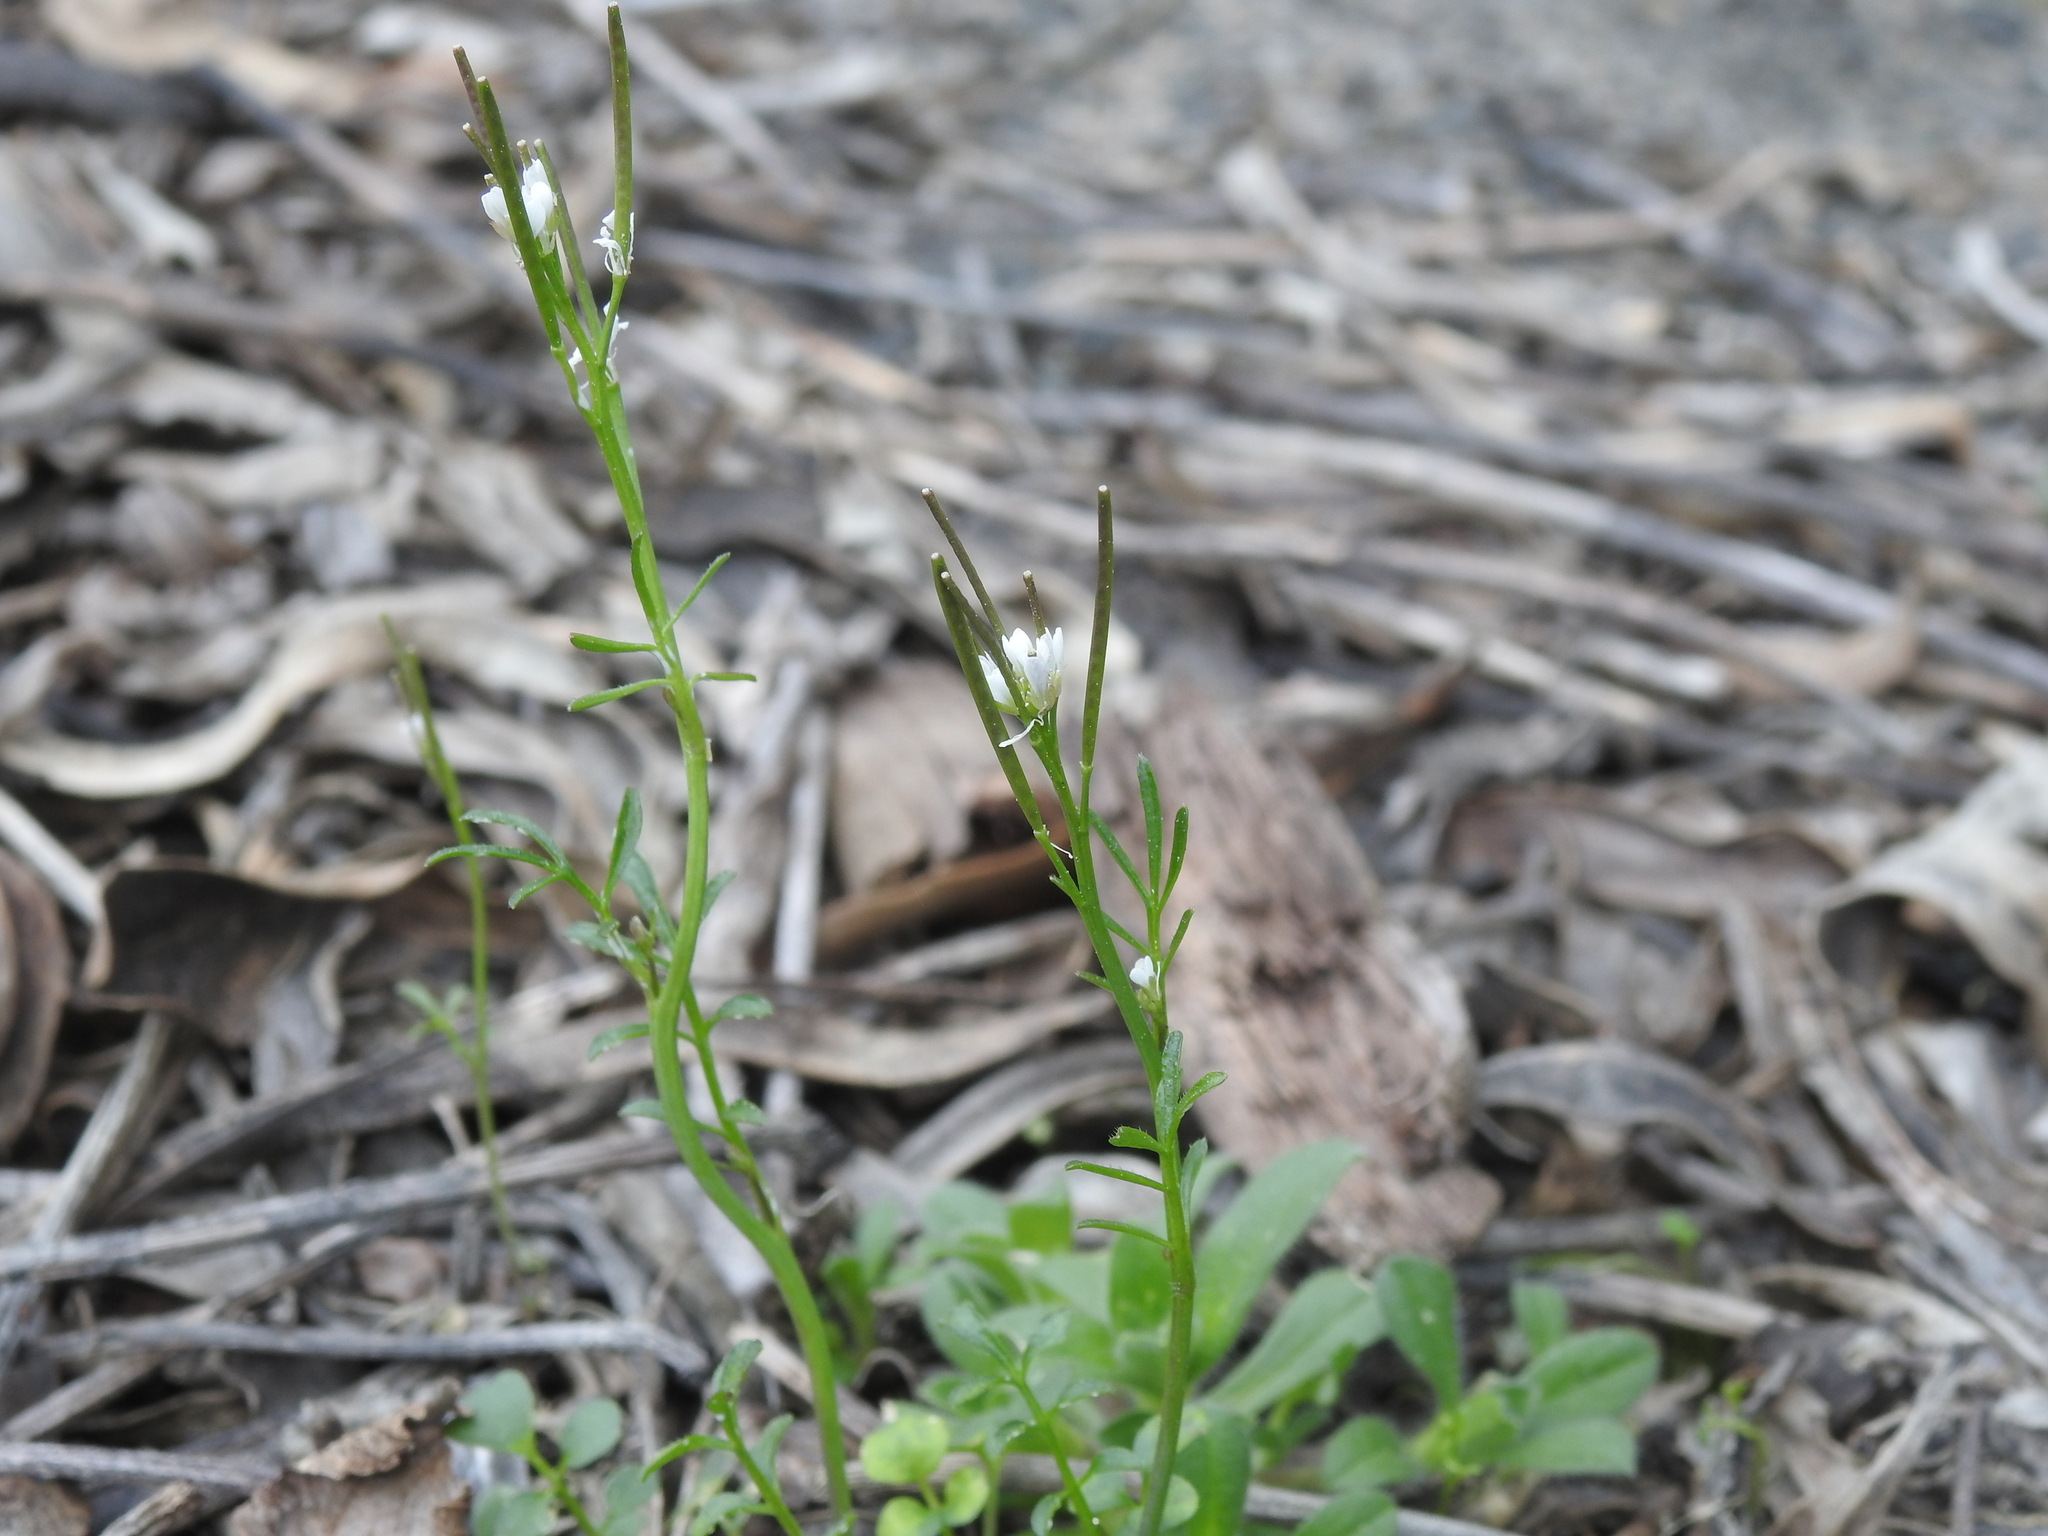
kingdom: Plantae
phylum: Tracheophyta
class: Magnoliopsida
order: Brassicales
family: Brassicaceae
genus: Cardamine
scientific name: Cardamine hirsuta
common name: Hairy bittercress
